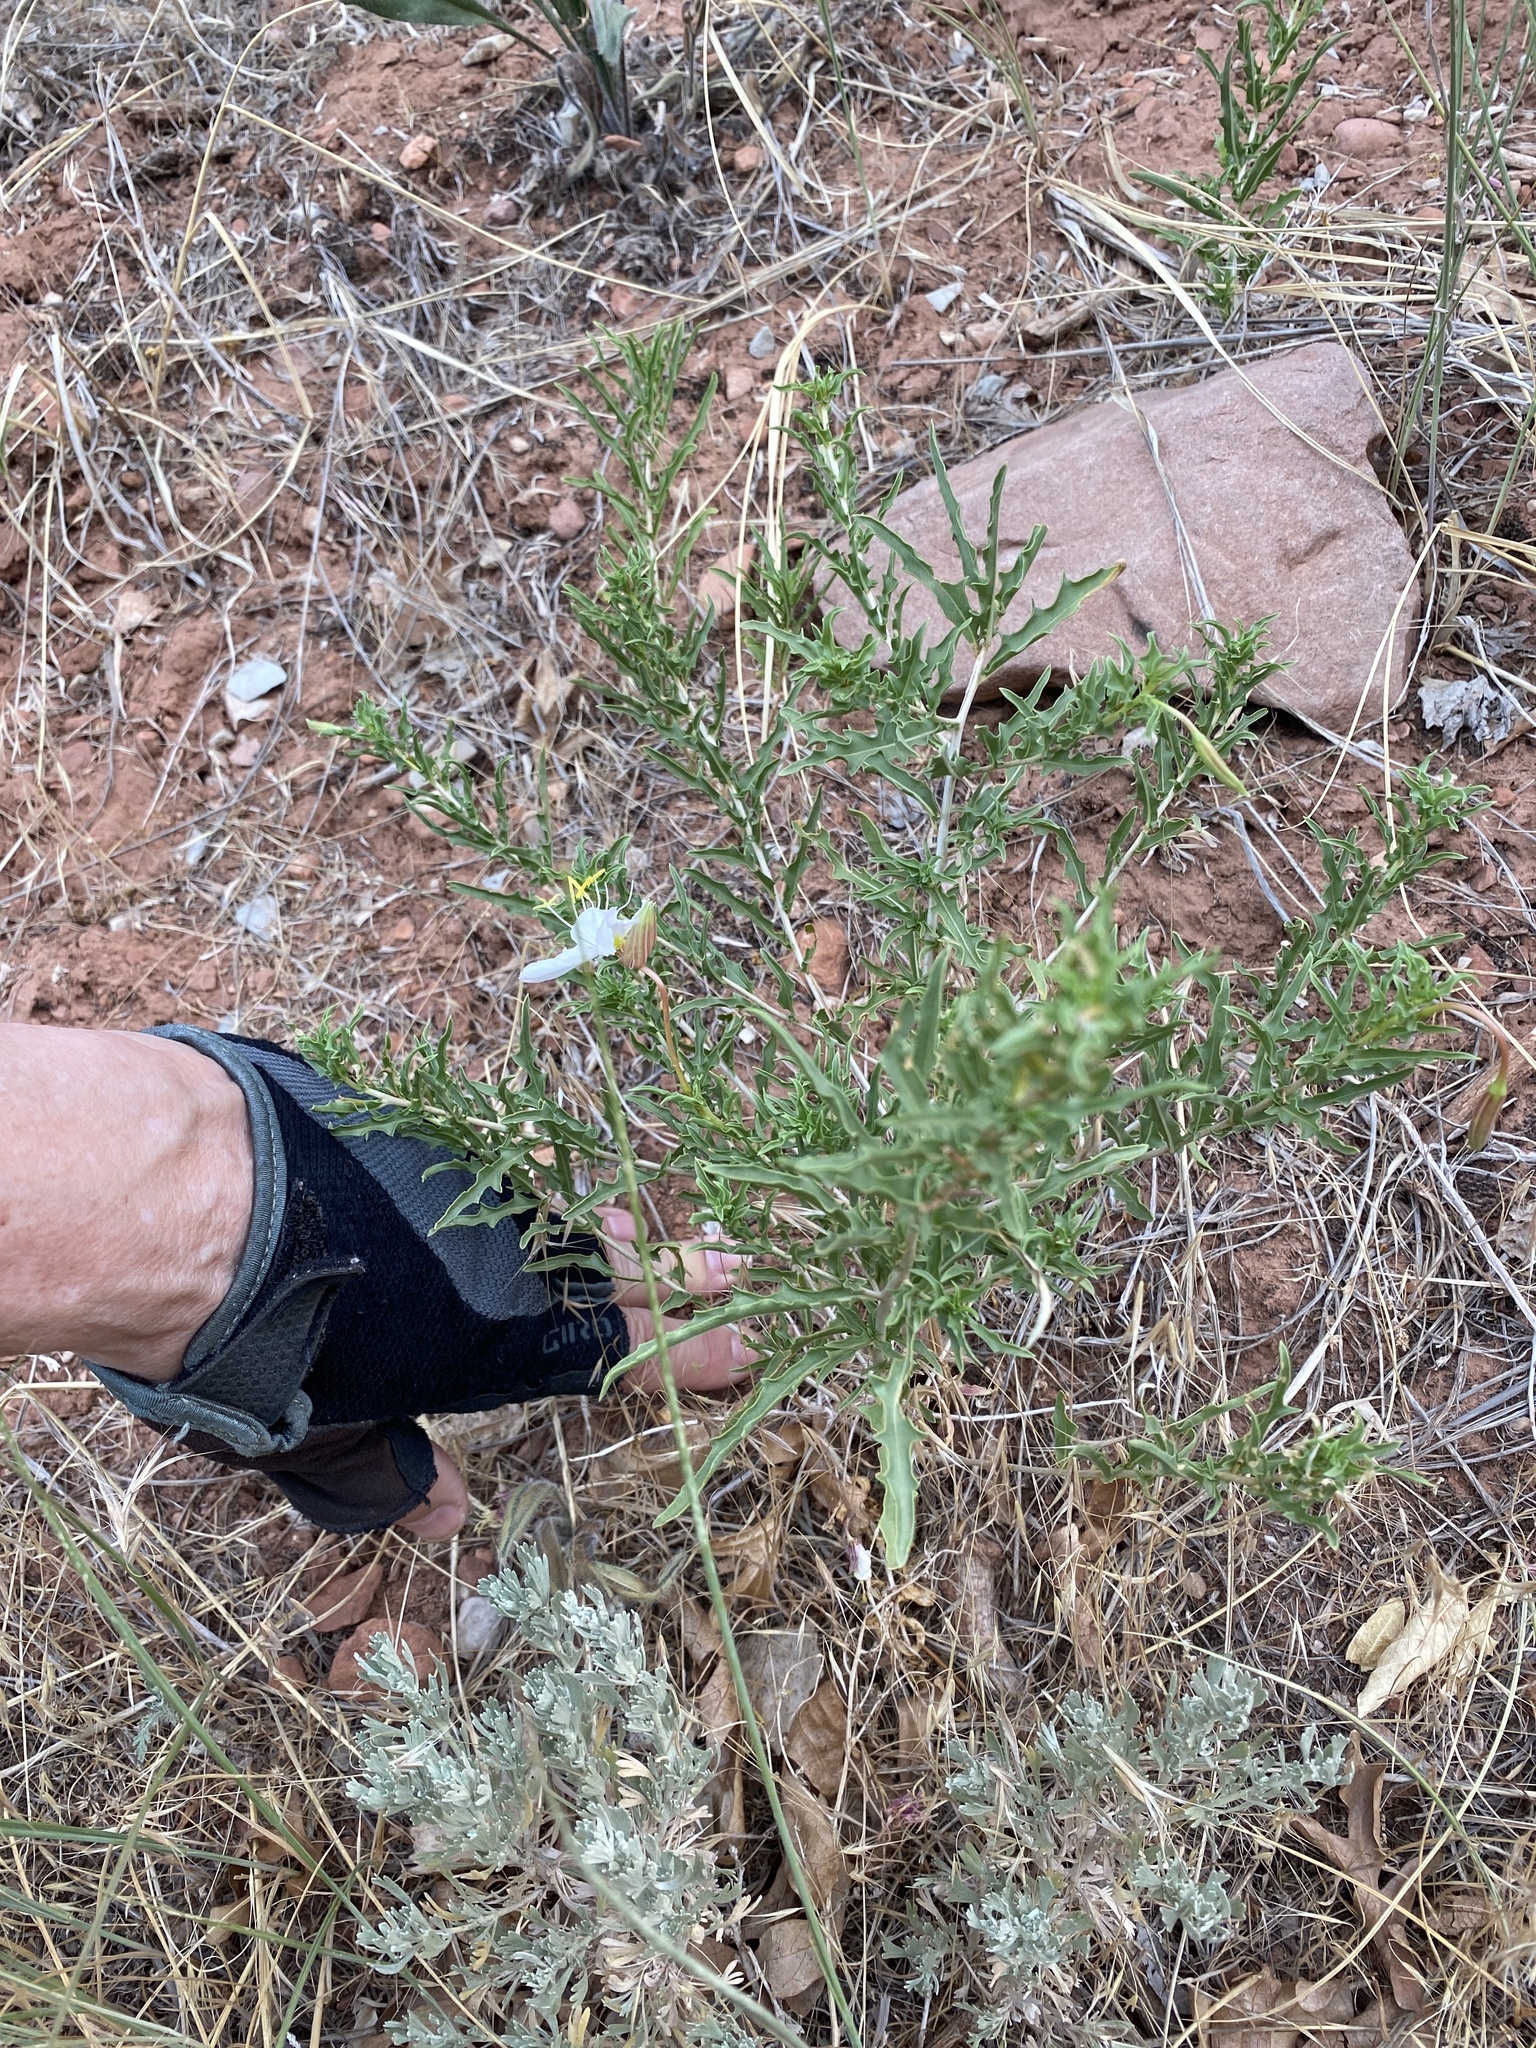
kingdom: Plantae
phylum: Tracheophyta
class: Magnoliopsida
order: Myrtales
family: Onagraceae
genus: Oenothera
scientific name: Oenothera pallida
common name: Pale evening-primrose
